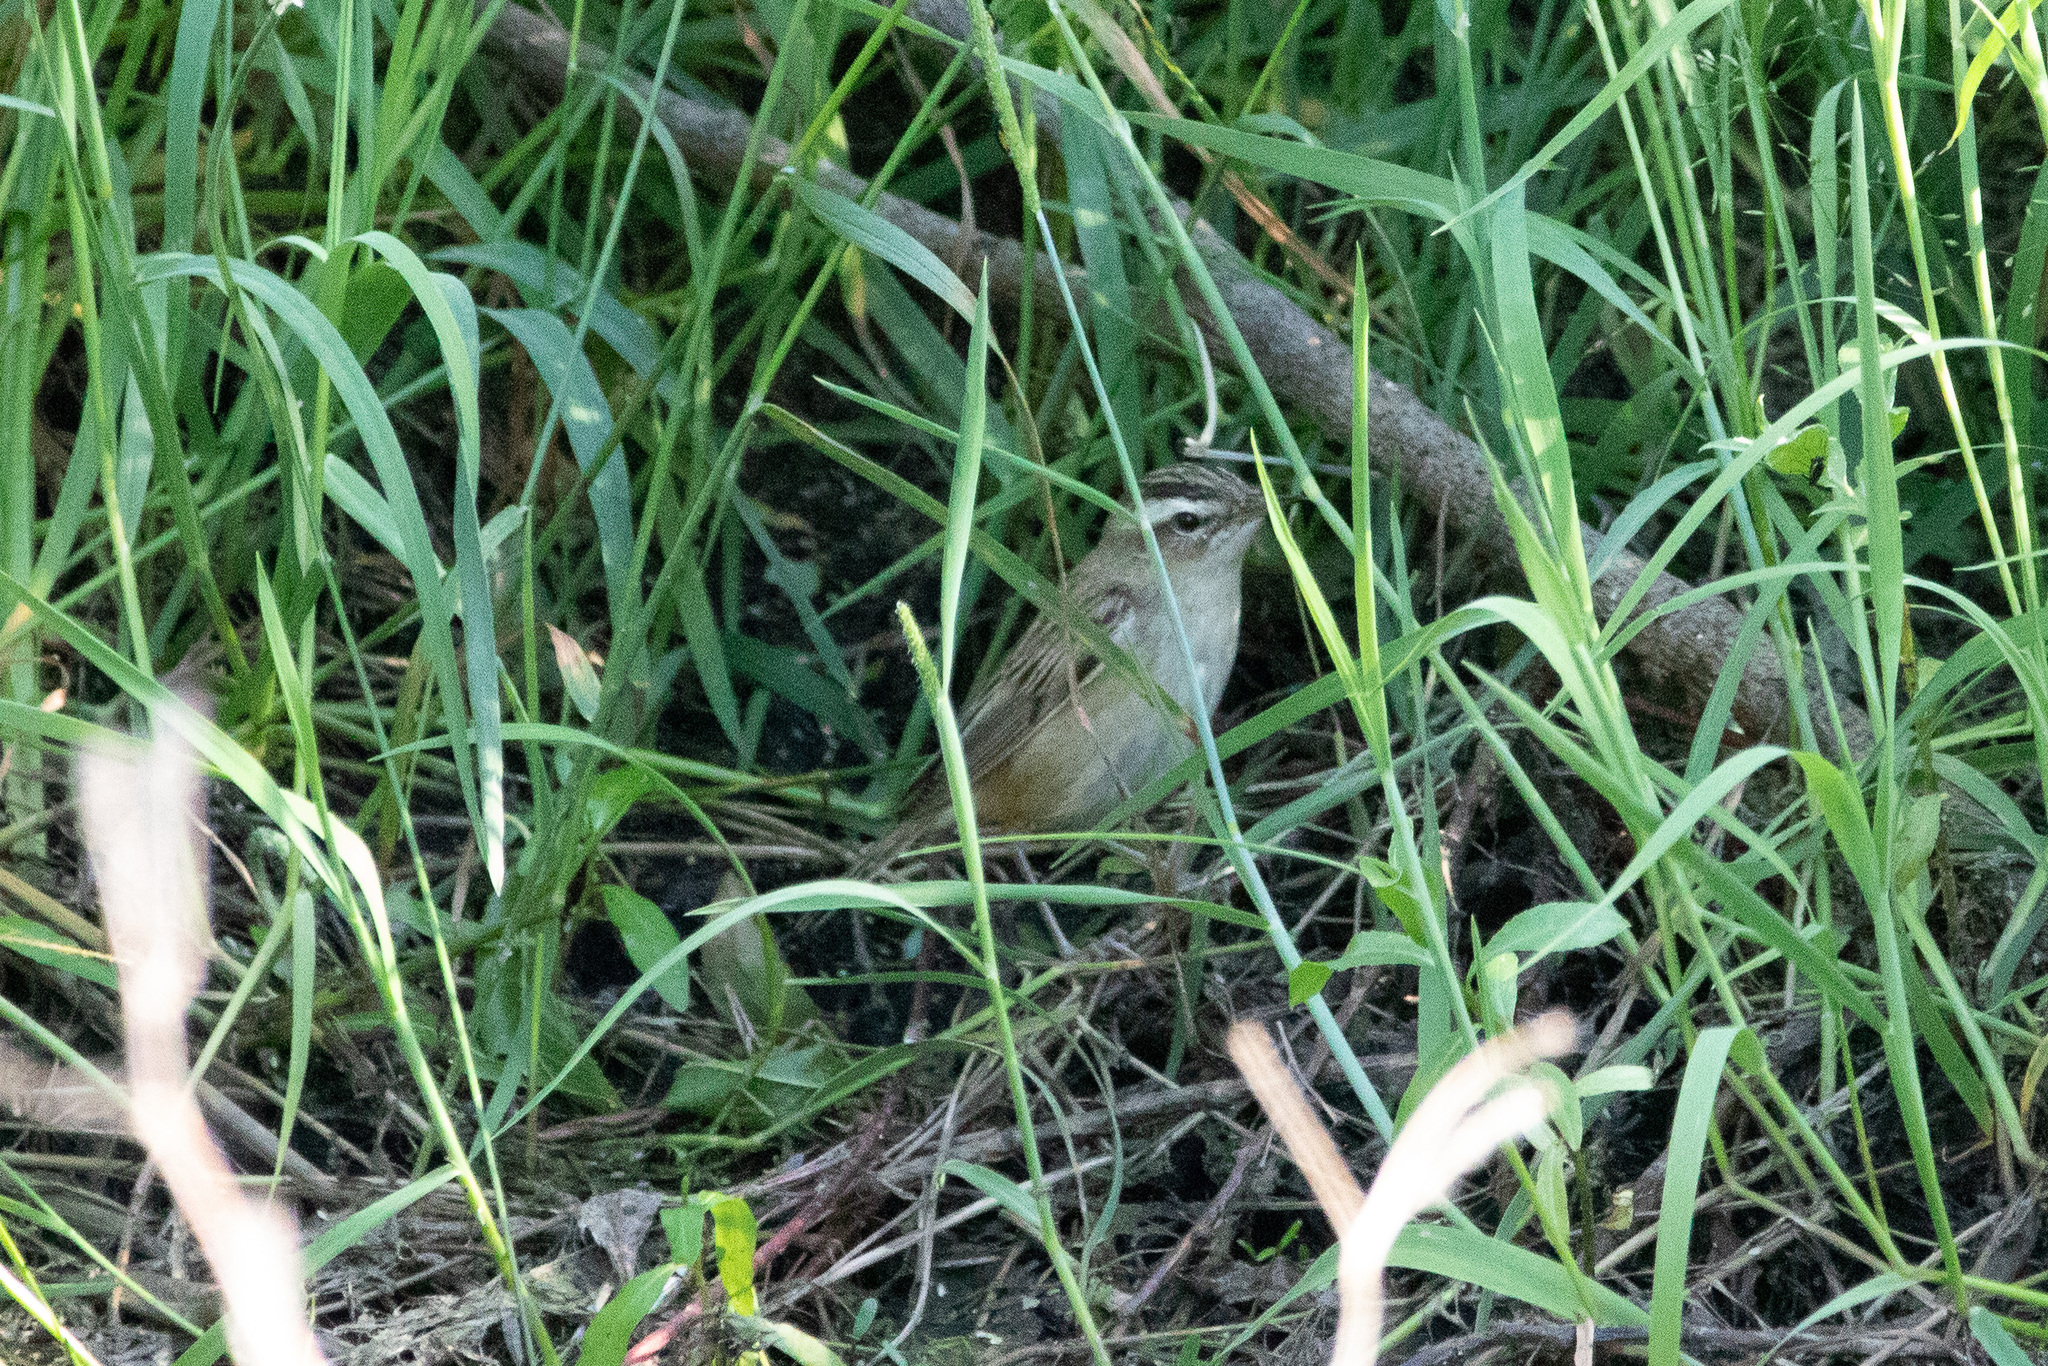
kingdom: Animalia
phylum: Chordata
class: Aves
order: Passeriformes
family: Acrocephalidae
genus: Acrocephalus
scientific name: Acrocephalus schoenobaenus
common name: Sedge warbler
